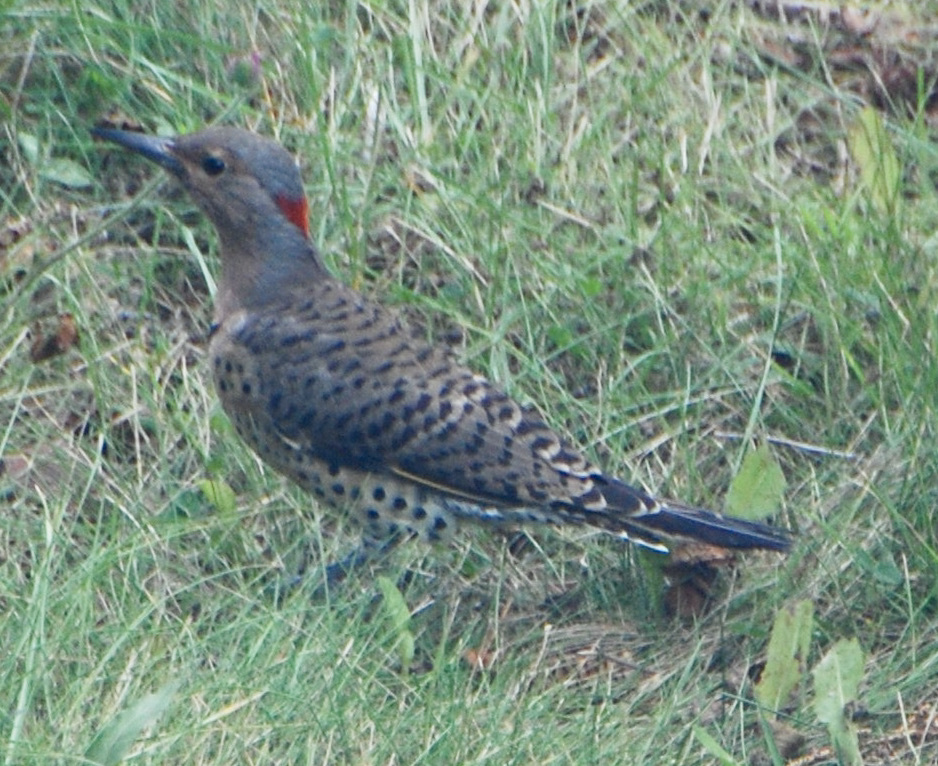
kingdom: Animalia
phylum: Chordata
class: Aves
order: Piciformes
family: Picidae
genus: Colaptes
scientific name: Colaptes auratus
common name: Northern flicker
